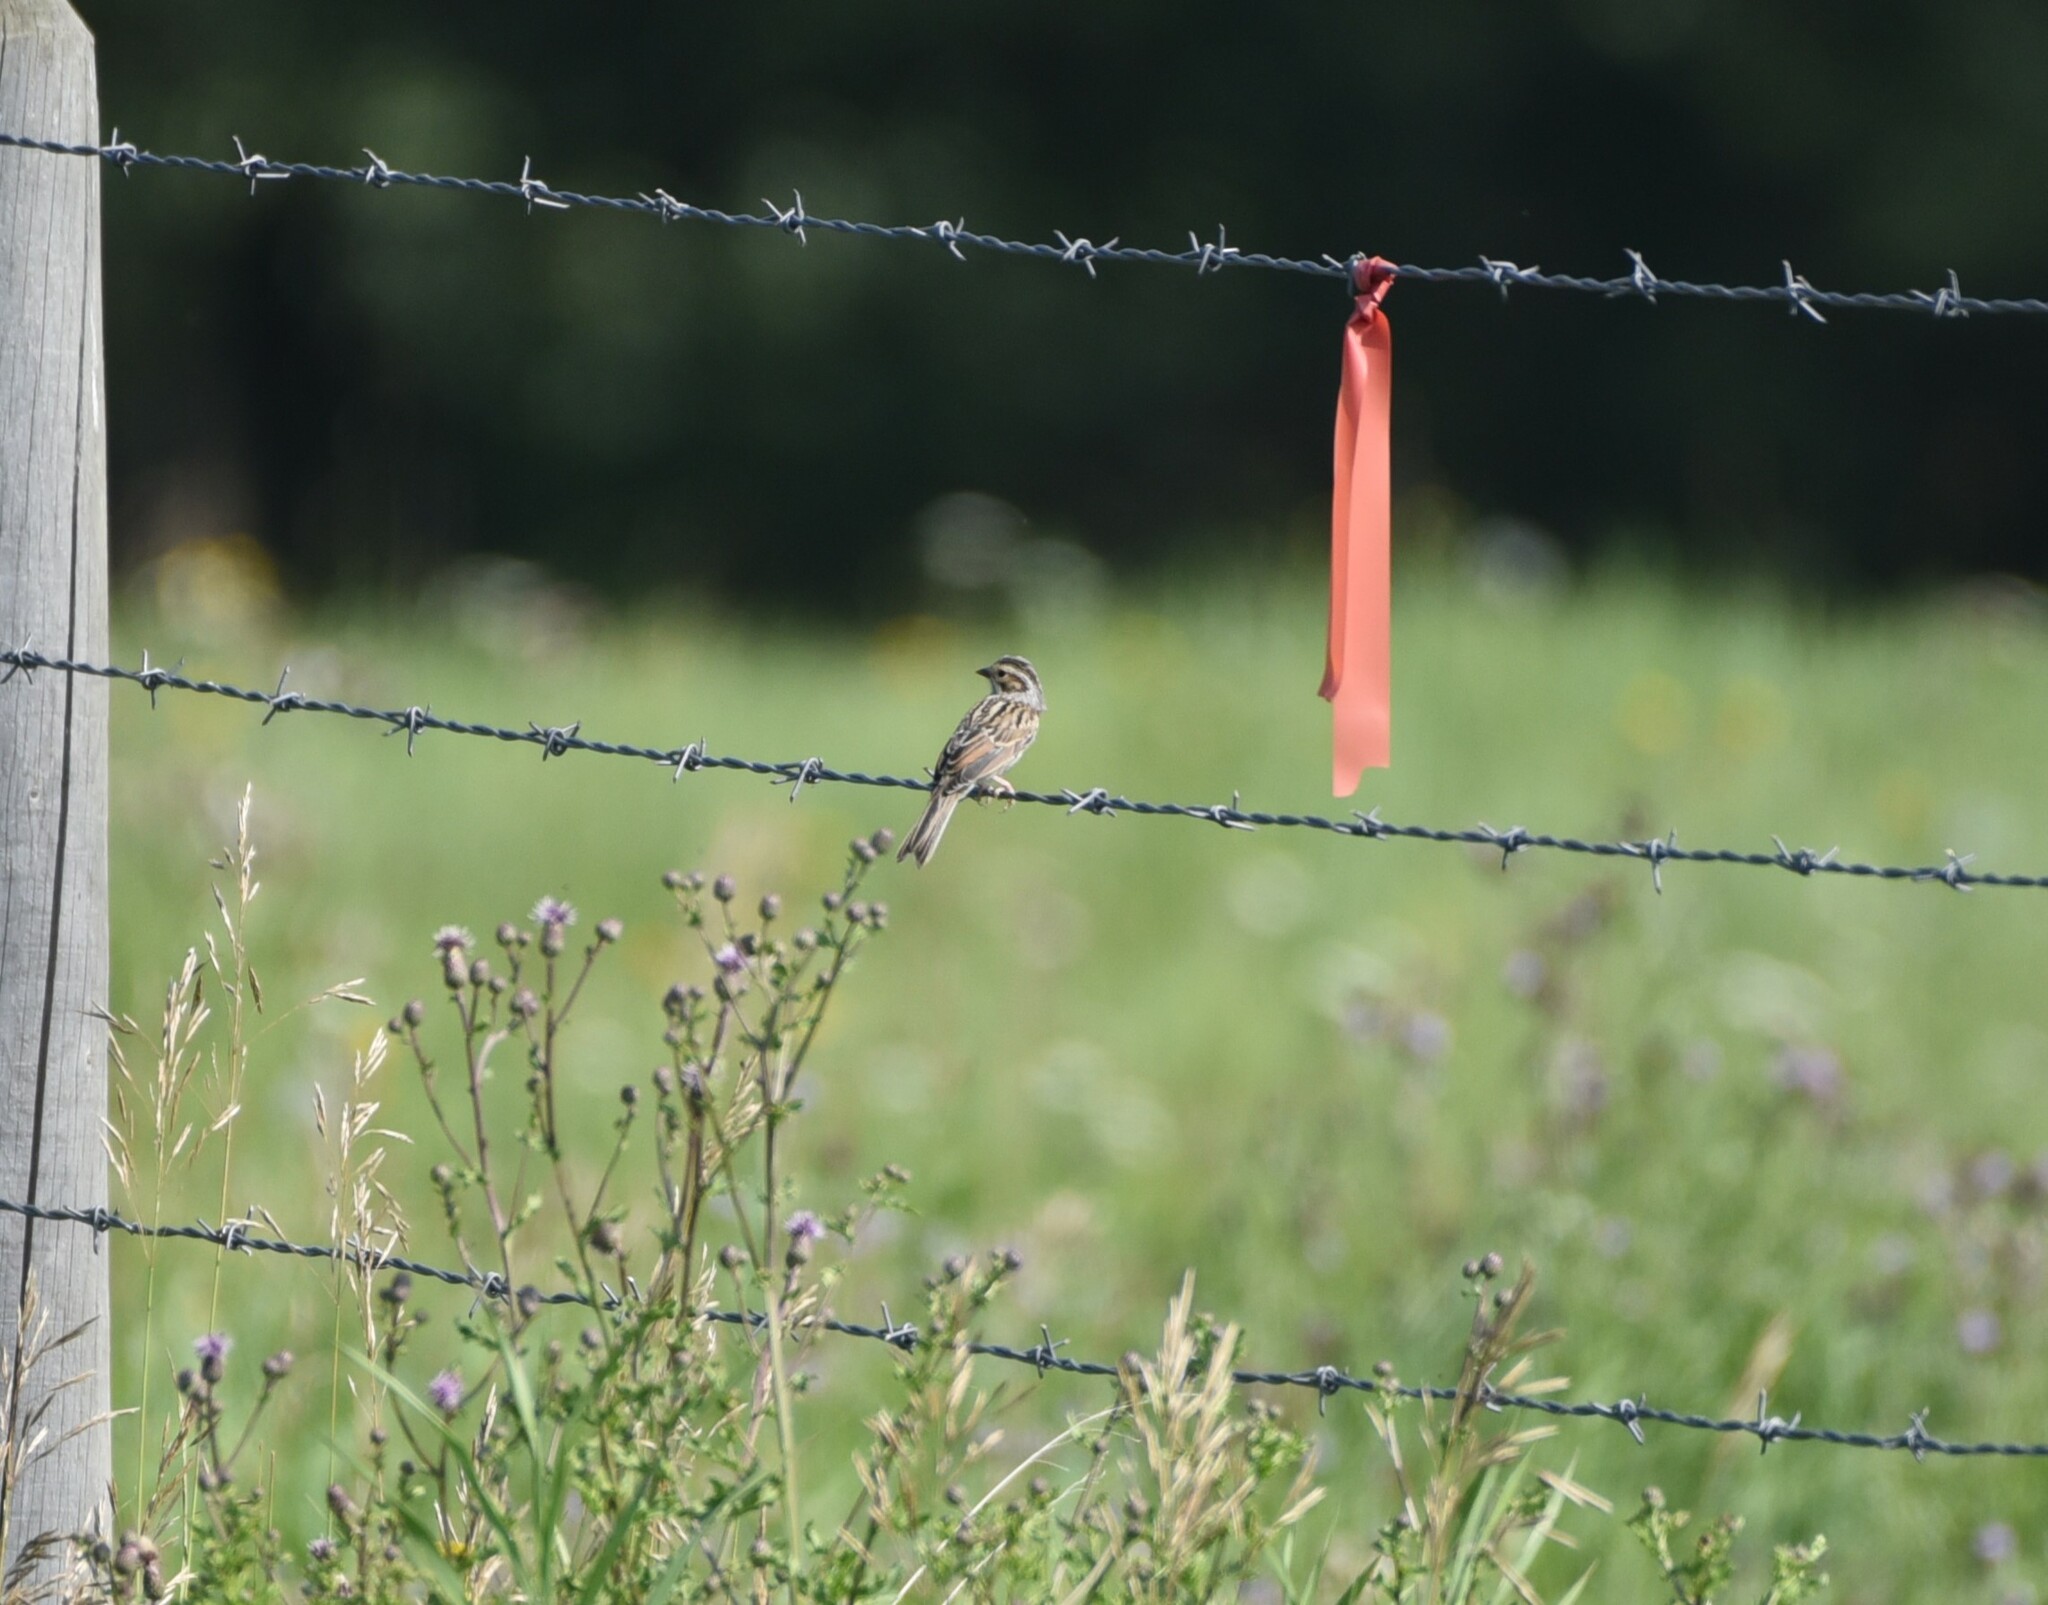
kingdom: Animalia
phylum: Chordata
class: Aves
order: Passeriformes
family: Passerellidae
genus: Spizella
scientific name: Spizella pallida
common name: Clay-colored sparrow
